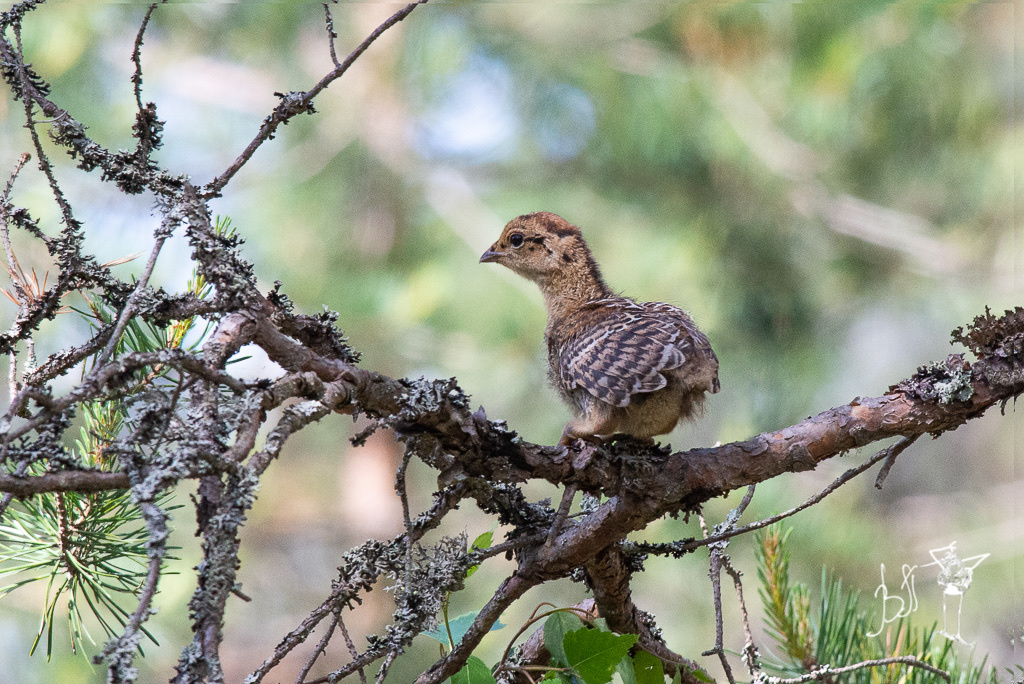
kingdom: Animalia
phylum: Chordata
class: Aves
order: Galliformes
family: Phasianidae
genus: Lyrurus
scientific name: Lyrurus tetrix
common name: Black grouse
